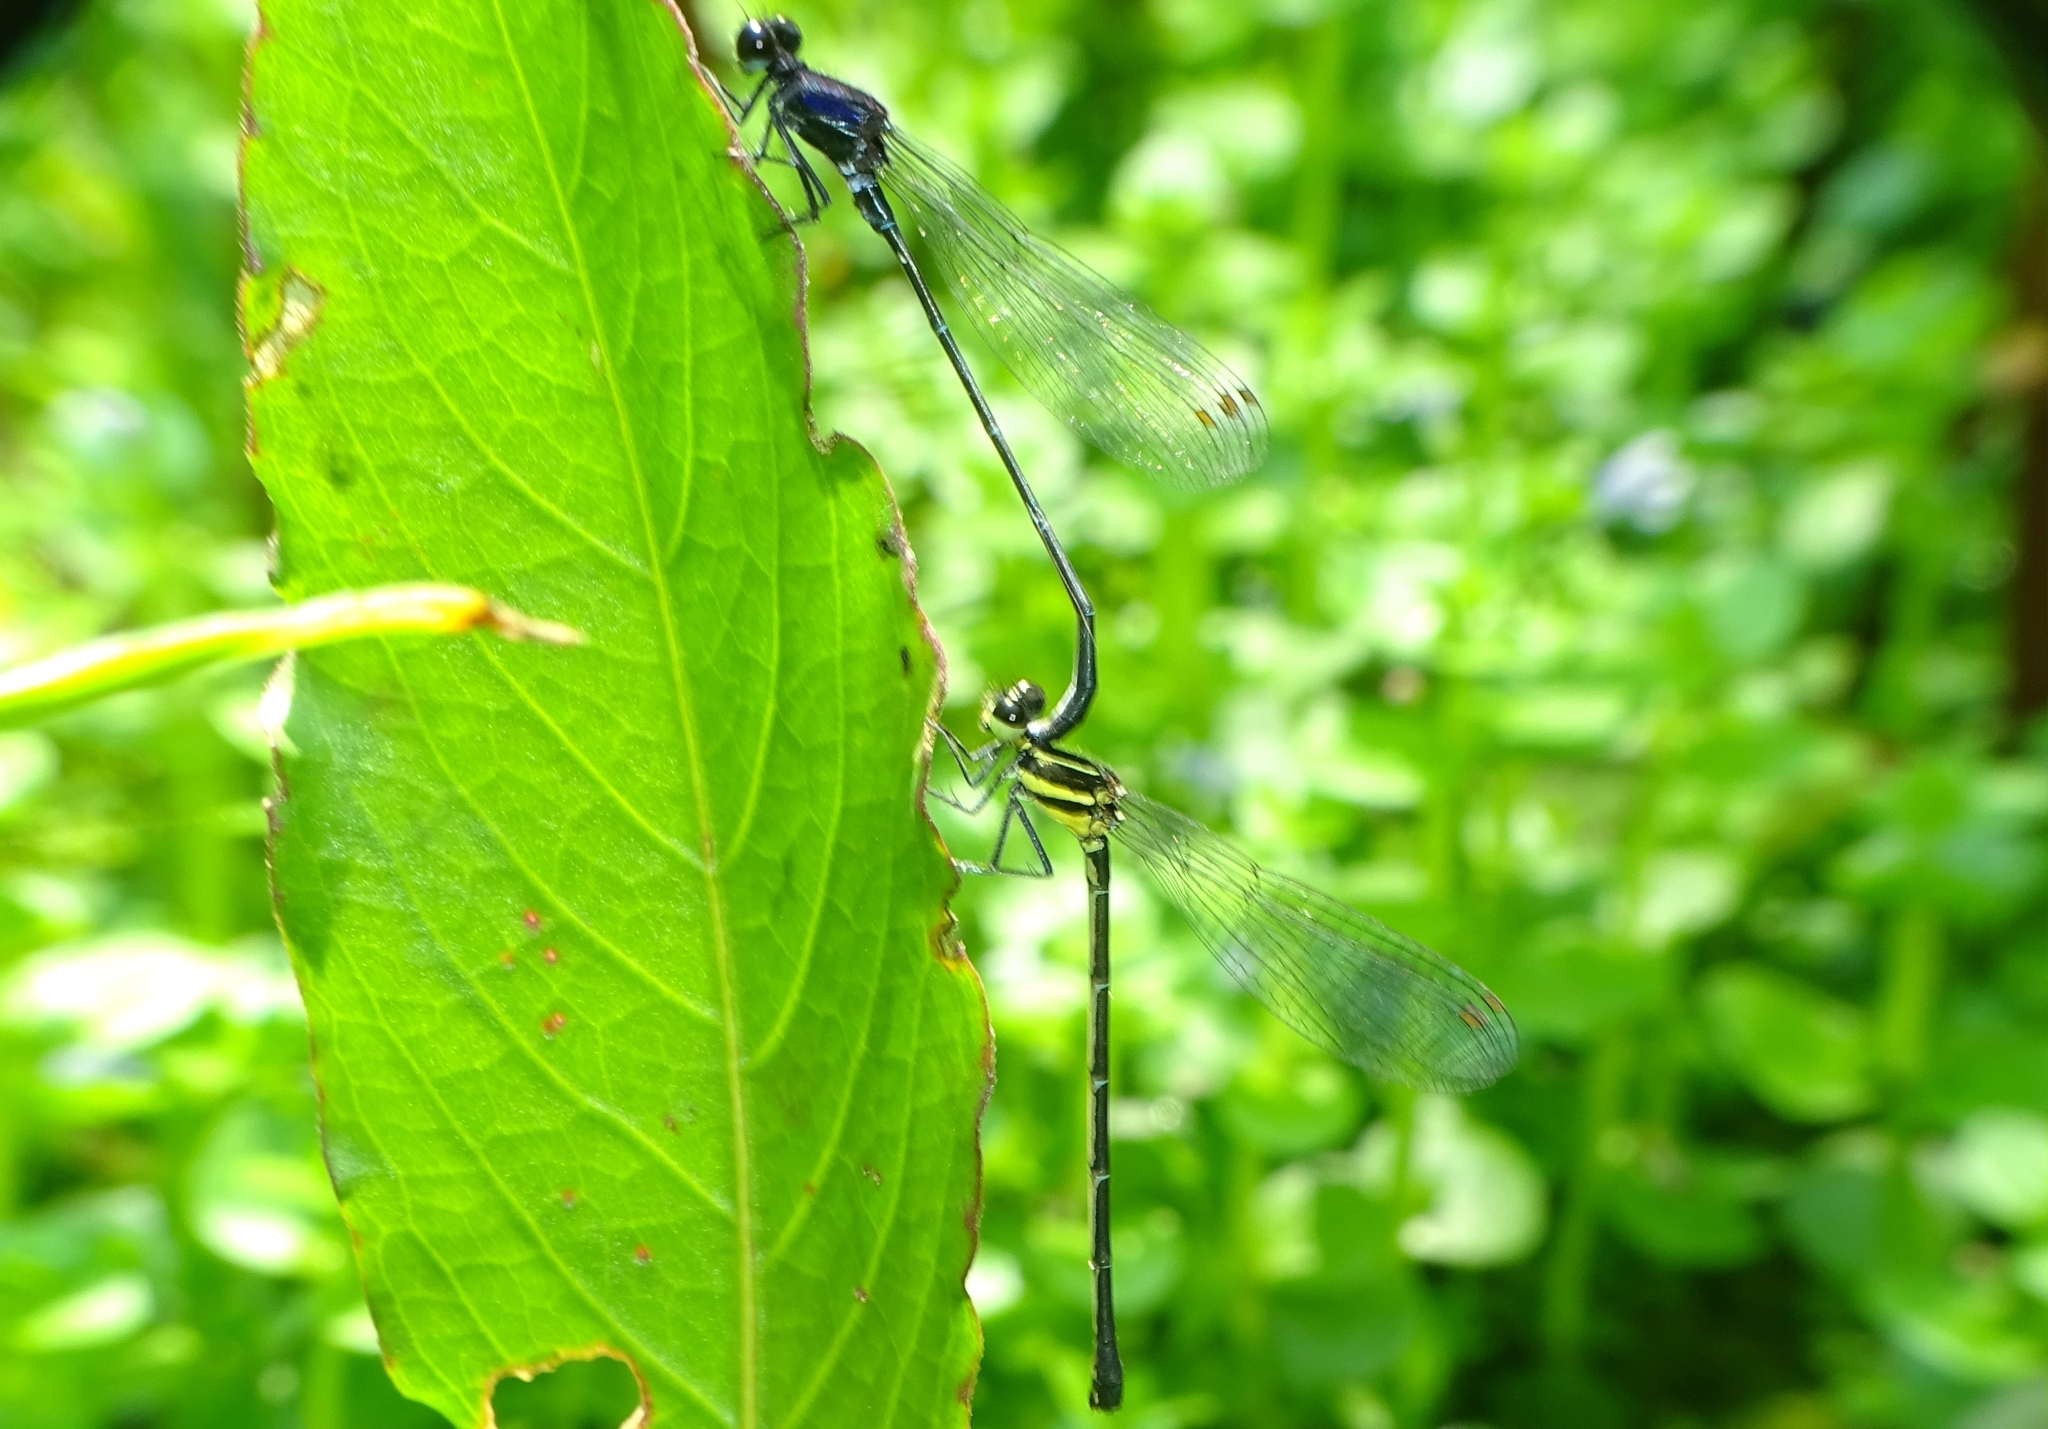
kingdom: Animalia
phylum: Arthropoda
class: Insecta
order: Odonata
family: Platycnemididae
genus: Onychargia
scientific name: Onychargia atrocyana
